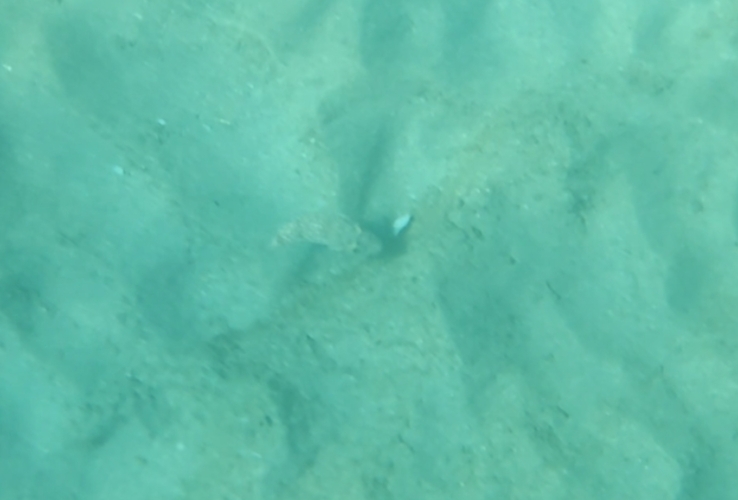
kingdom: Animalia
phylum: Chordata
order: Tetraodontiformes
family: Tetraodontidae
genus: Torquigener
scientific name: Torquigener flavimaculosus
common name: Studded pufferfish
